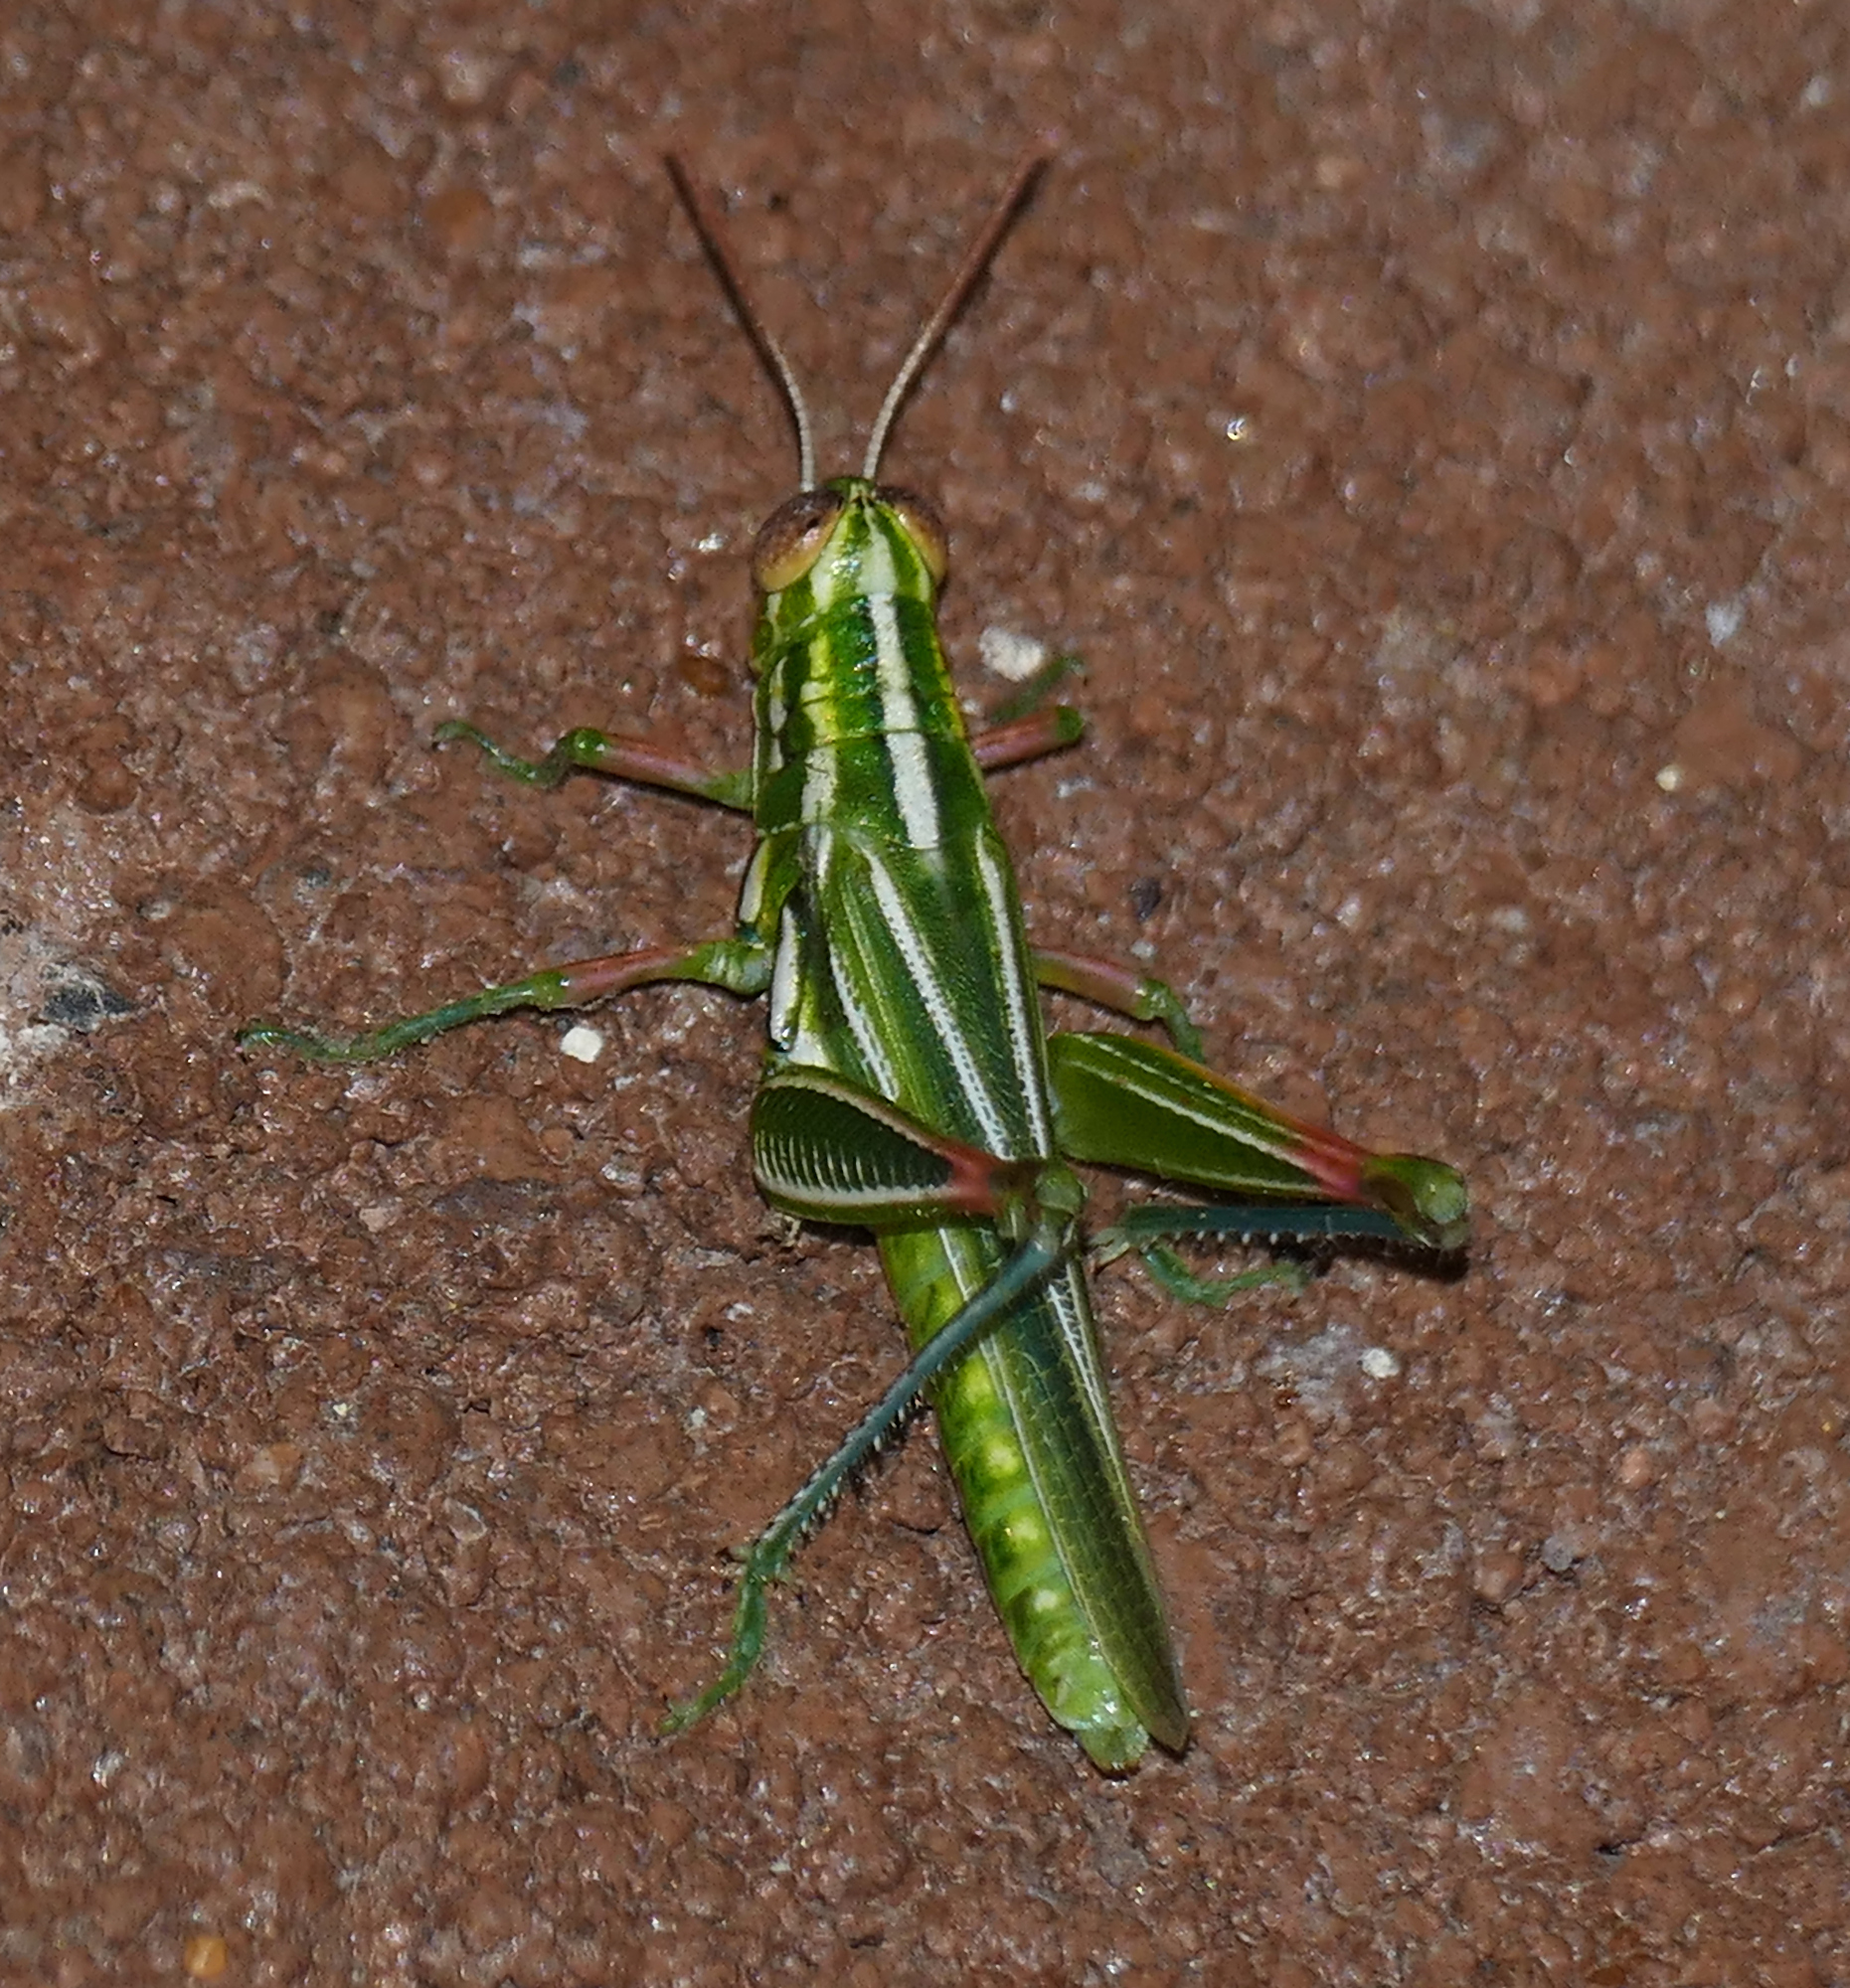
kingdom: Animalia
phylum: Arthropoda
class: Insecta
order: Orthoptera
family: Acrididae
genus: Hesperotettix
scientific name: Hesperotettix viridis
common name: Meadow purple-striped grasshopper
